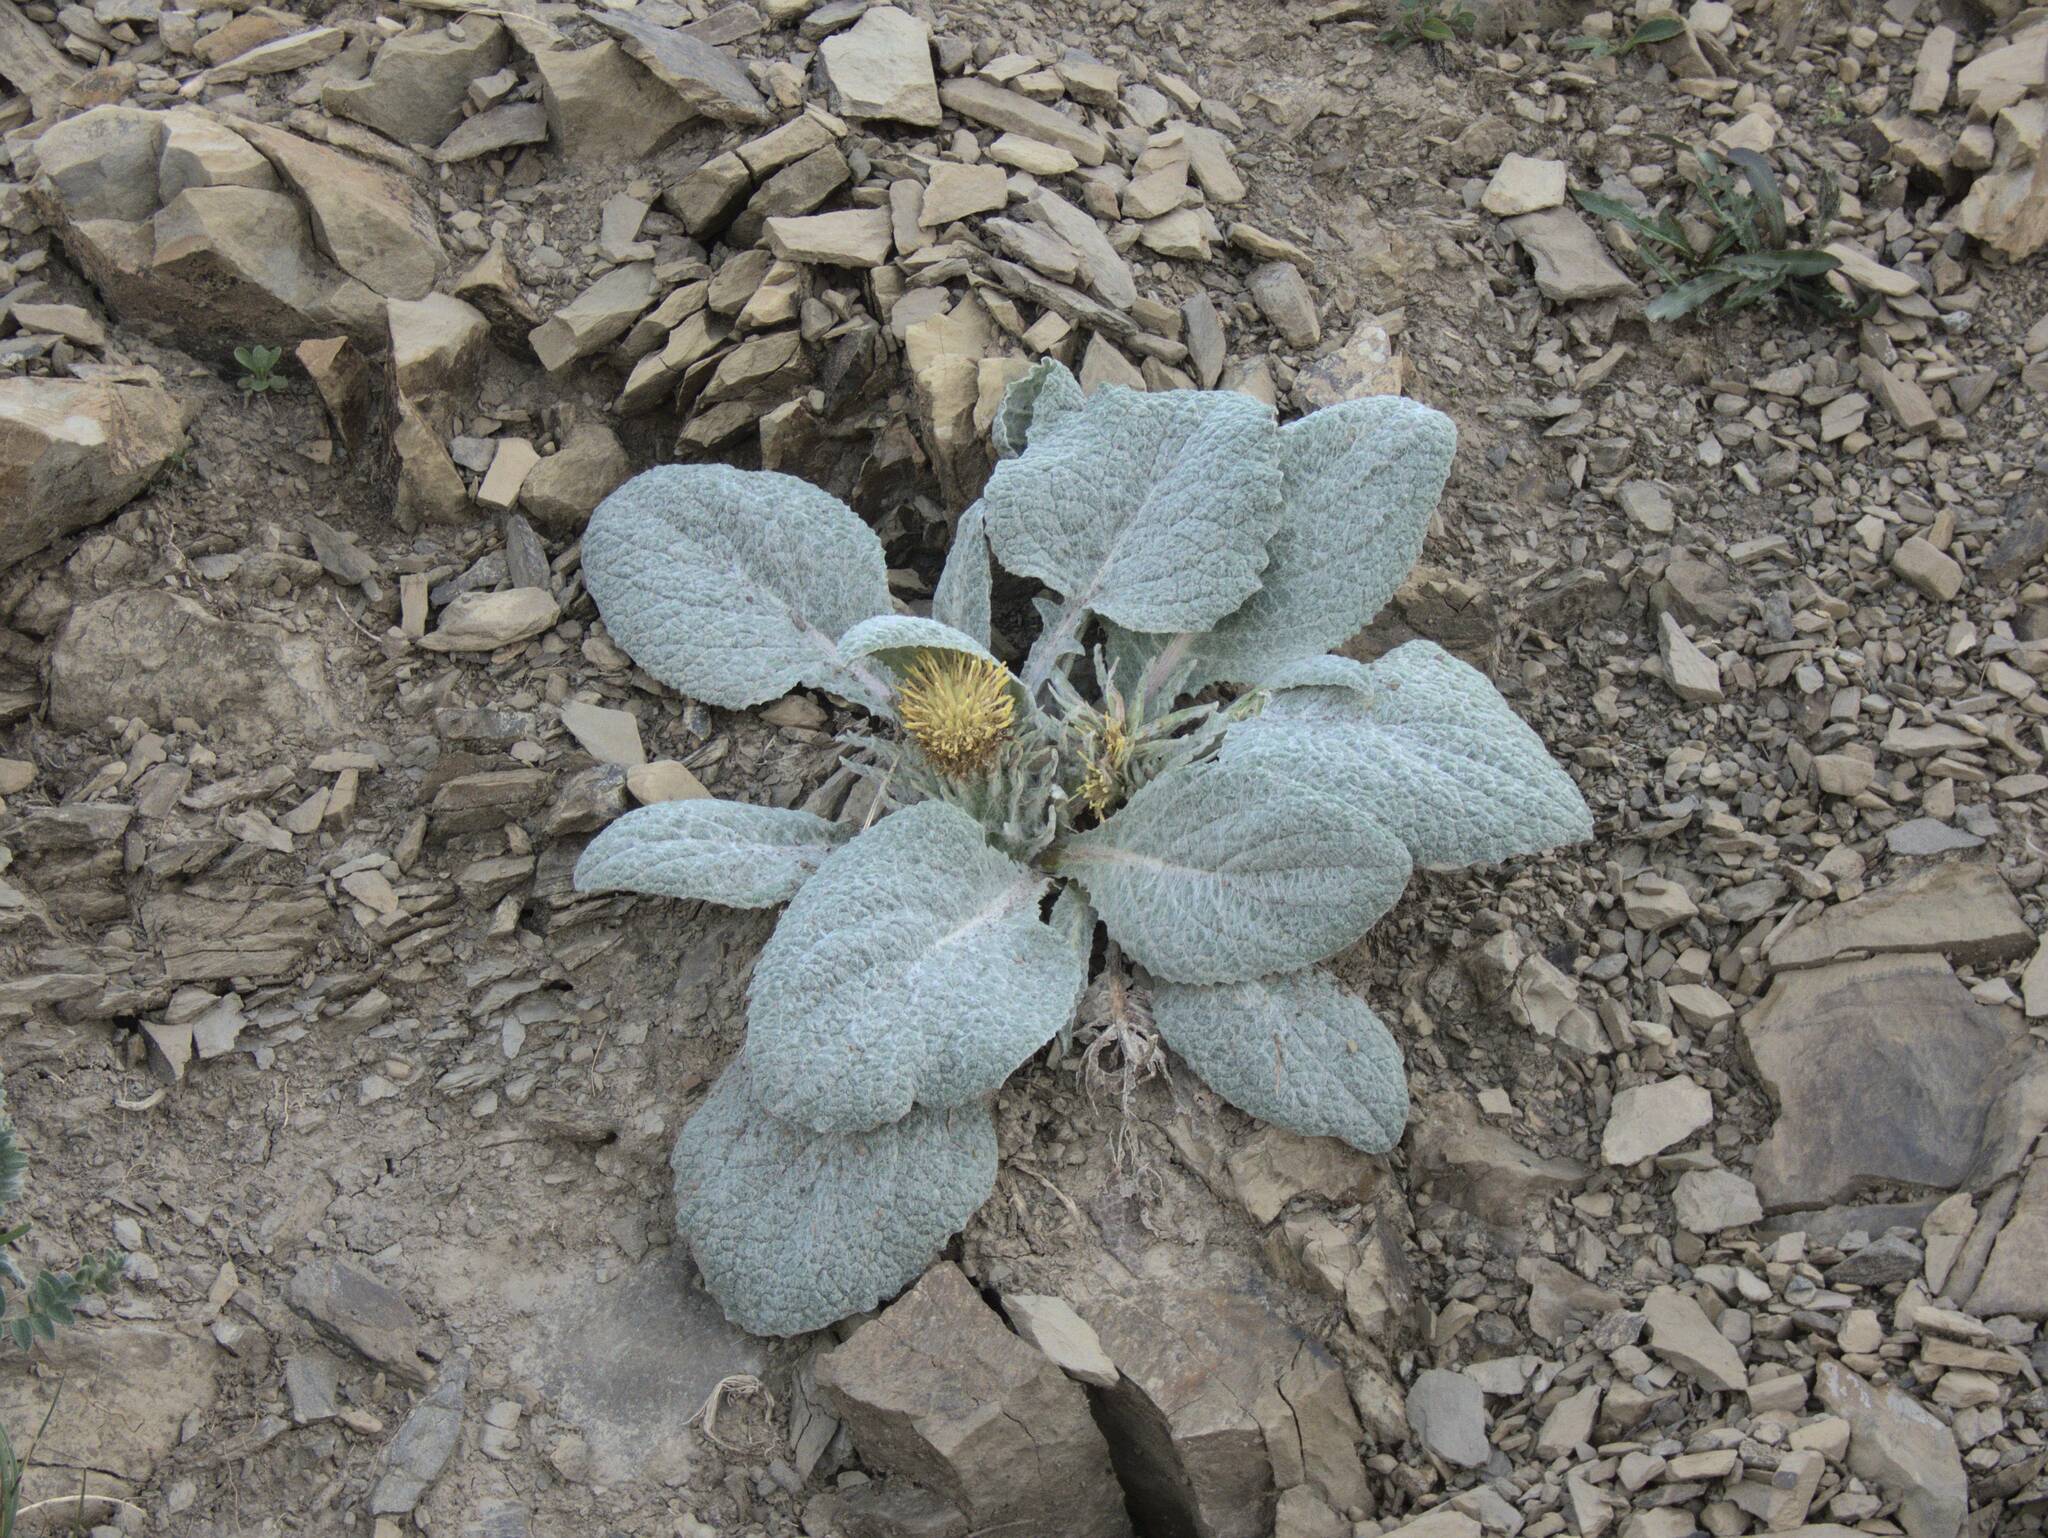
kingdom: Plantae
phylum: Tracheophyta
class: Magnoliopsida
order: Asterales
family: Asteraceae
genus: Berardia
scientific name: Berardia lanuginosa
